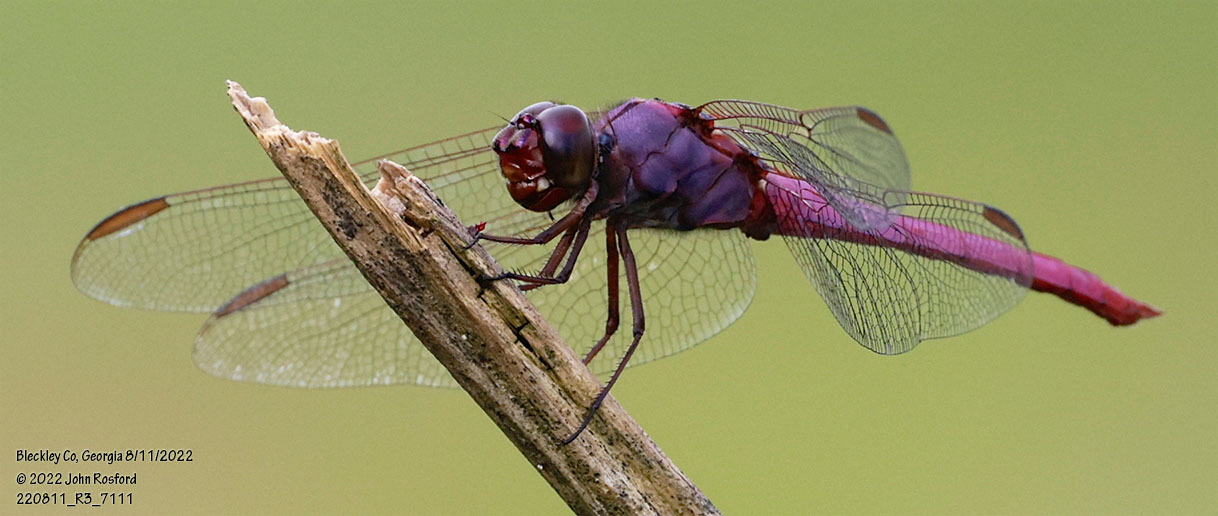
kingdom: Animalia
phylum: Arthropoda
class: Insecta
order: Odonata
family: Libellulidae
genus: Orthemis
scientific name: Orthemis ferruginea
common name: Roseate skimmer
